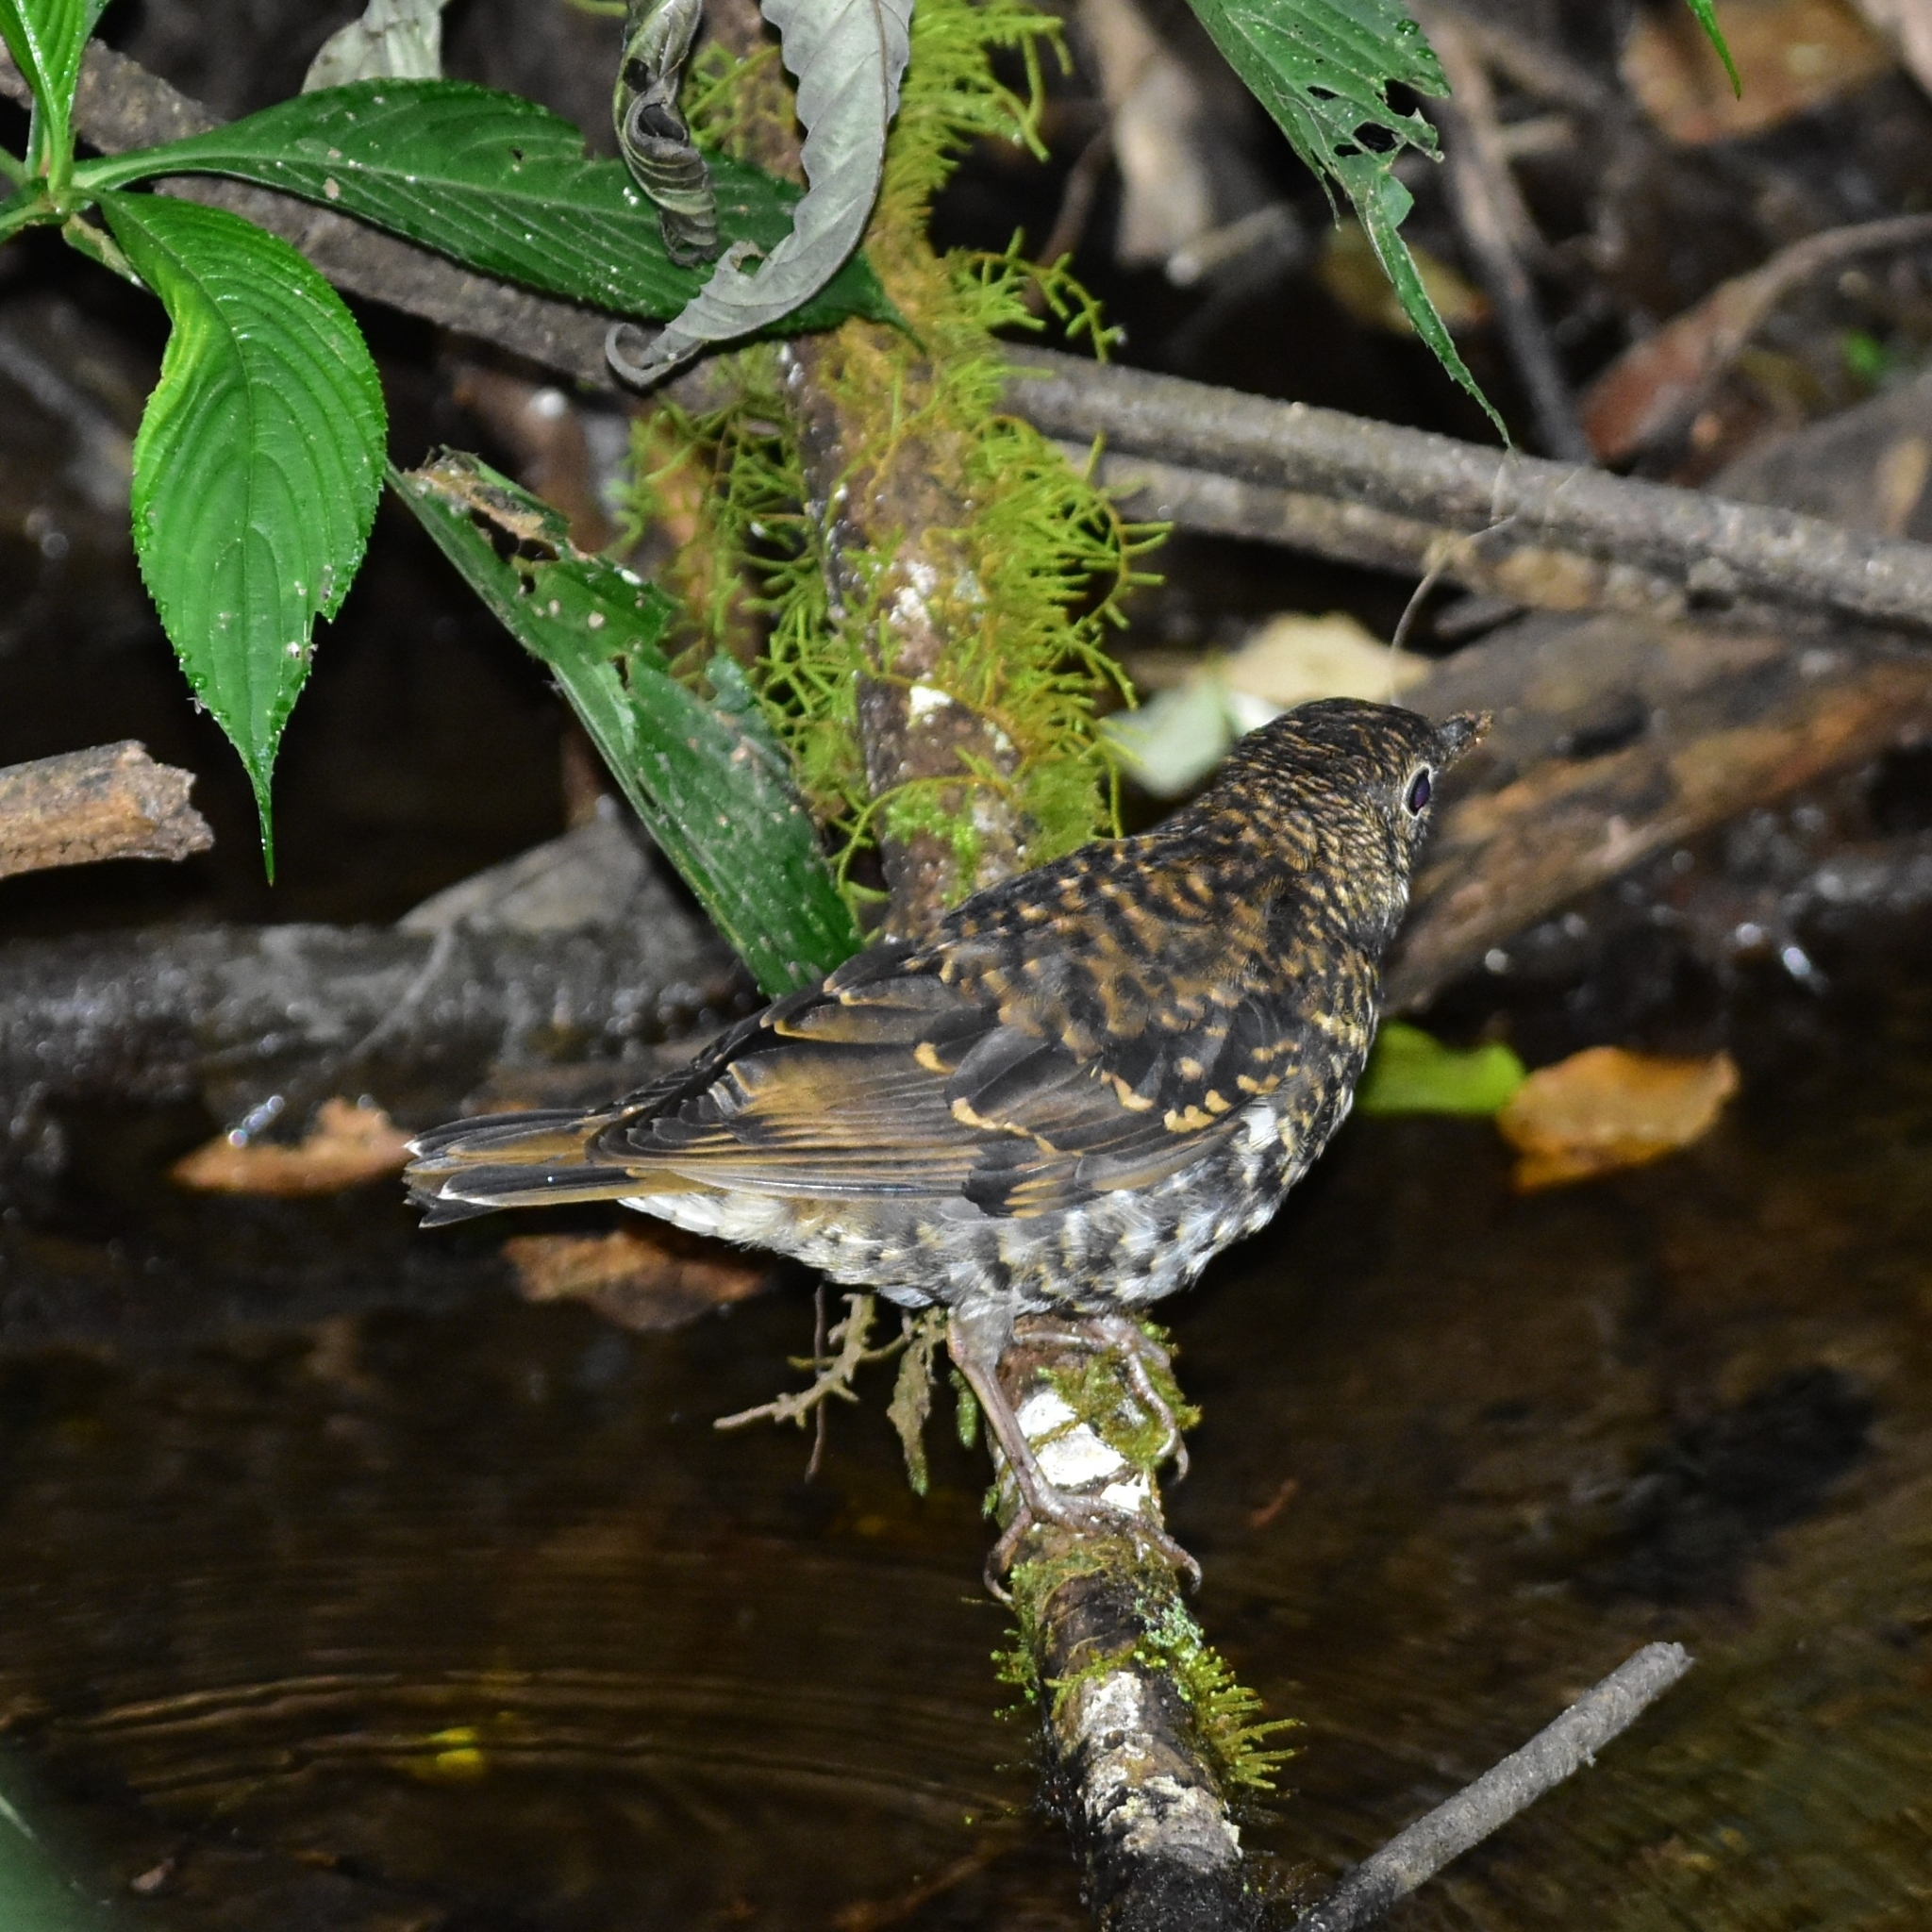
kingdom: Animalia
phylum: Chordata
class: Aves
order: Passeriformes
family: Turdidae
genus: Zoothera
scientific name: Zoothera neilgherriensis
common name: Nilgiri thrush
